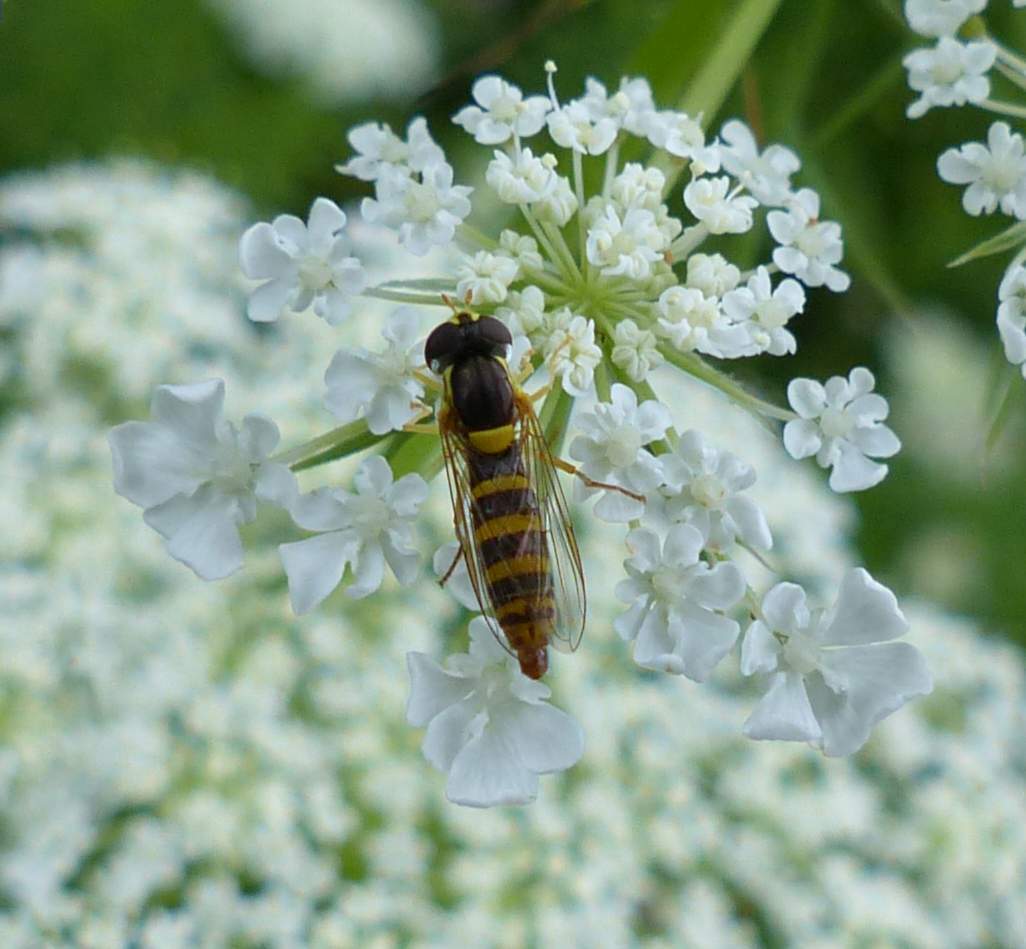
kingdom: Animalia
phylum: Arthropoda
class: Insecta
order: Diptera
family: Syrphidae
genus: Sphaerophoria
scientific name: Sphaerophoria
